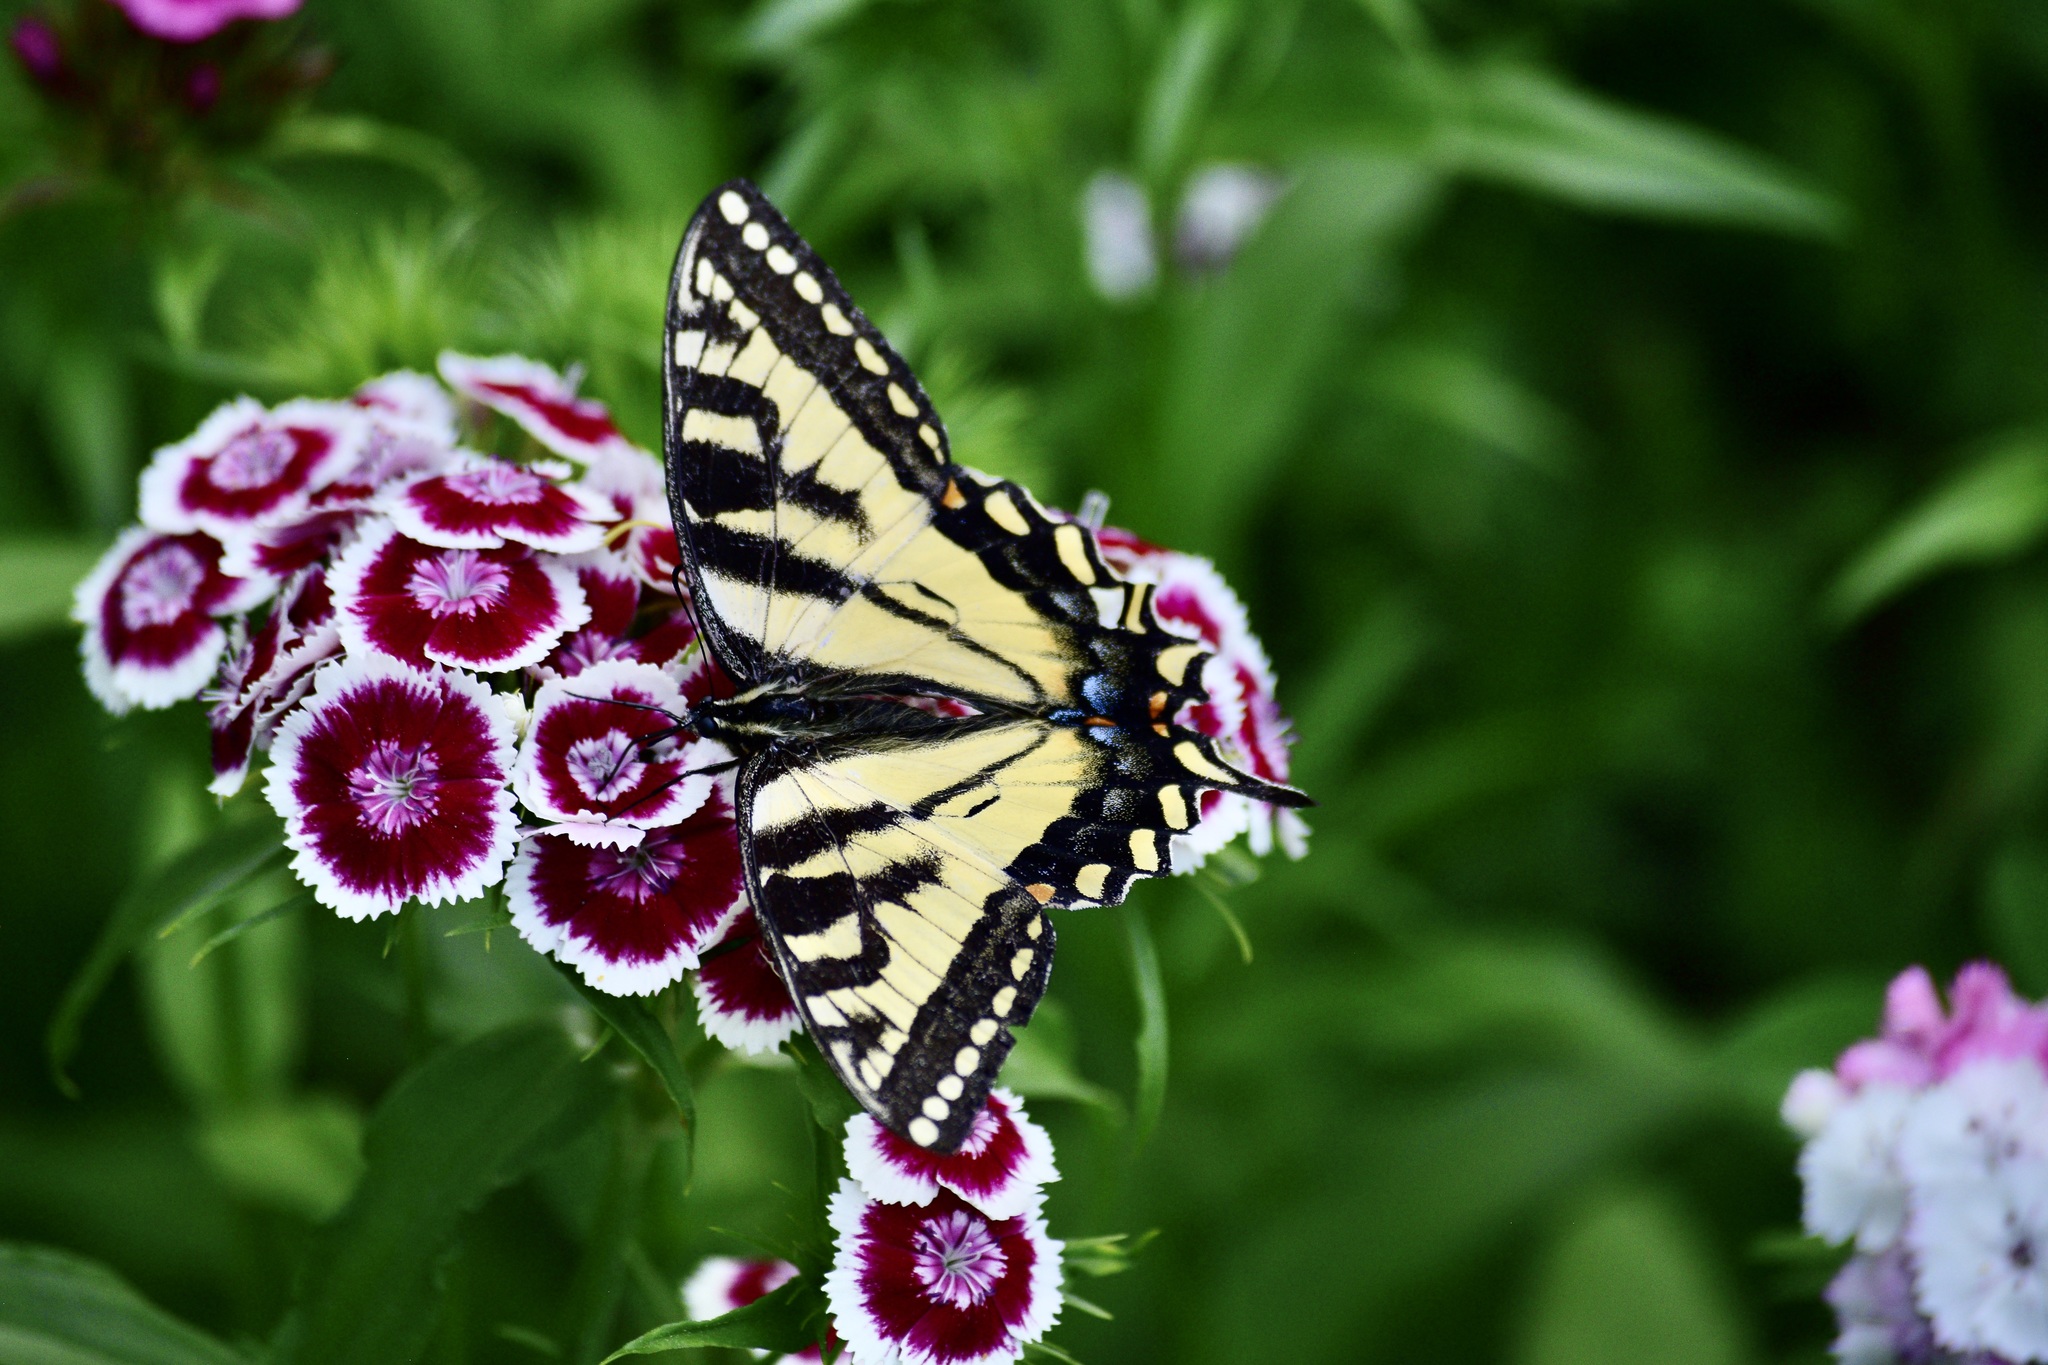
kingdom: Animalia
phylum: Arthropoda
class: Insecta
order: Lepidoptera
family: Papilionidae
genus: Papilio
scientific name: Papilio canadensis
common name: Canadian tiger swallowtail
